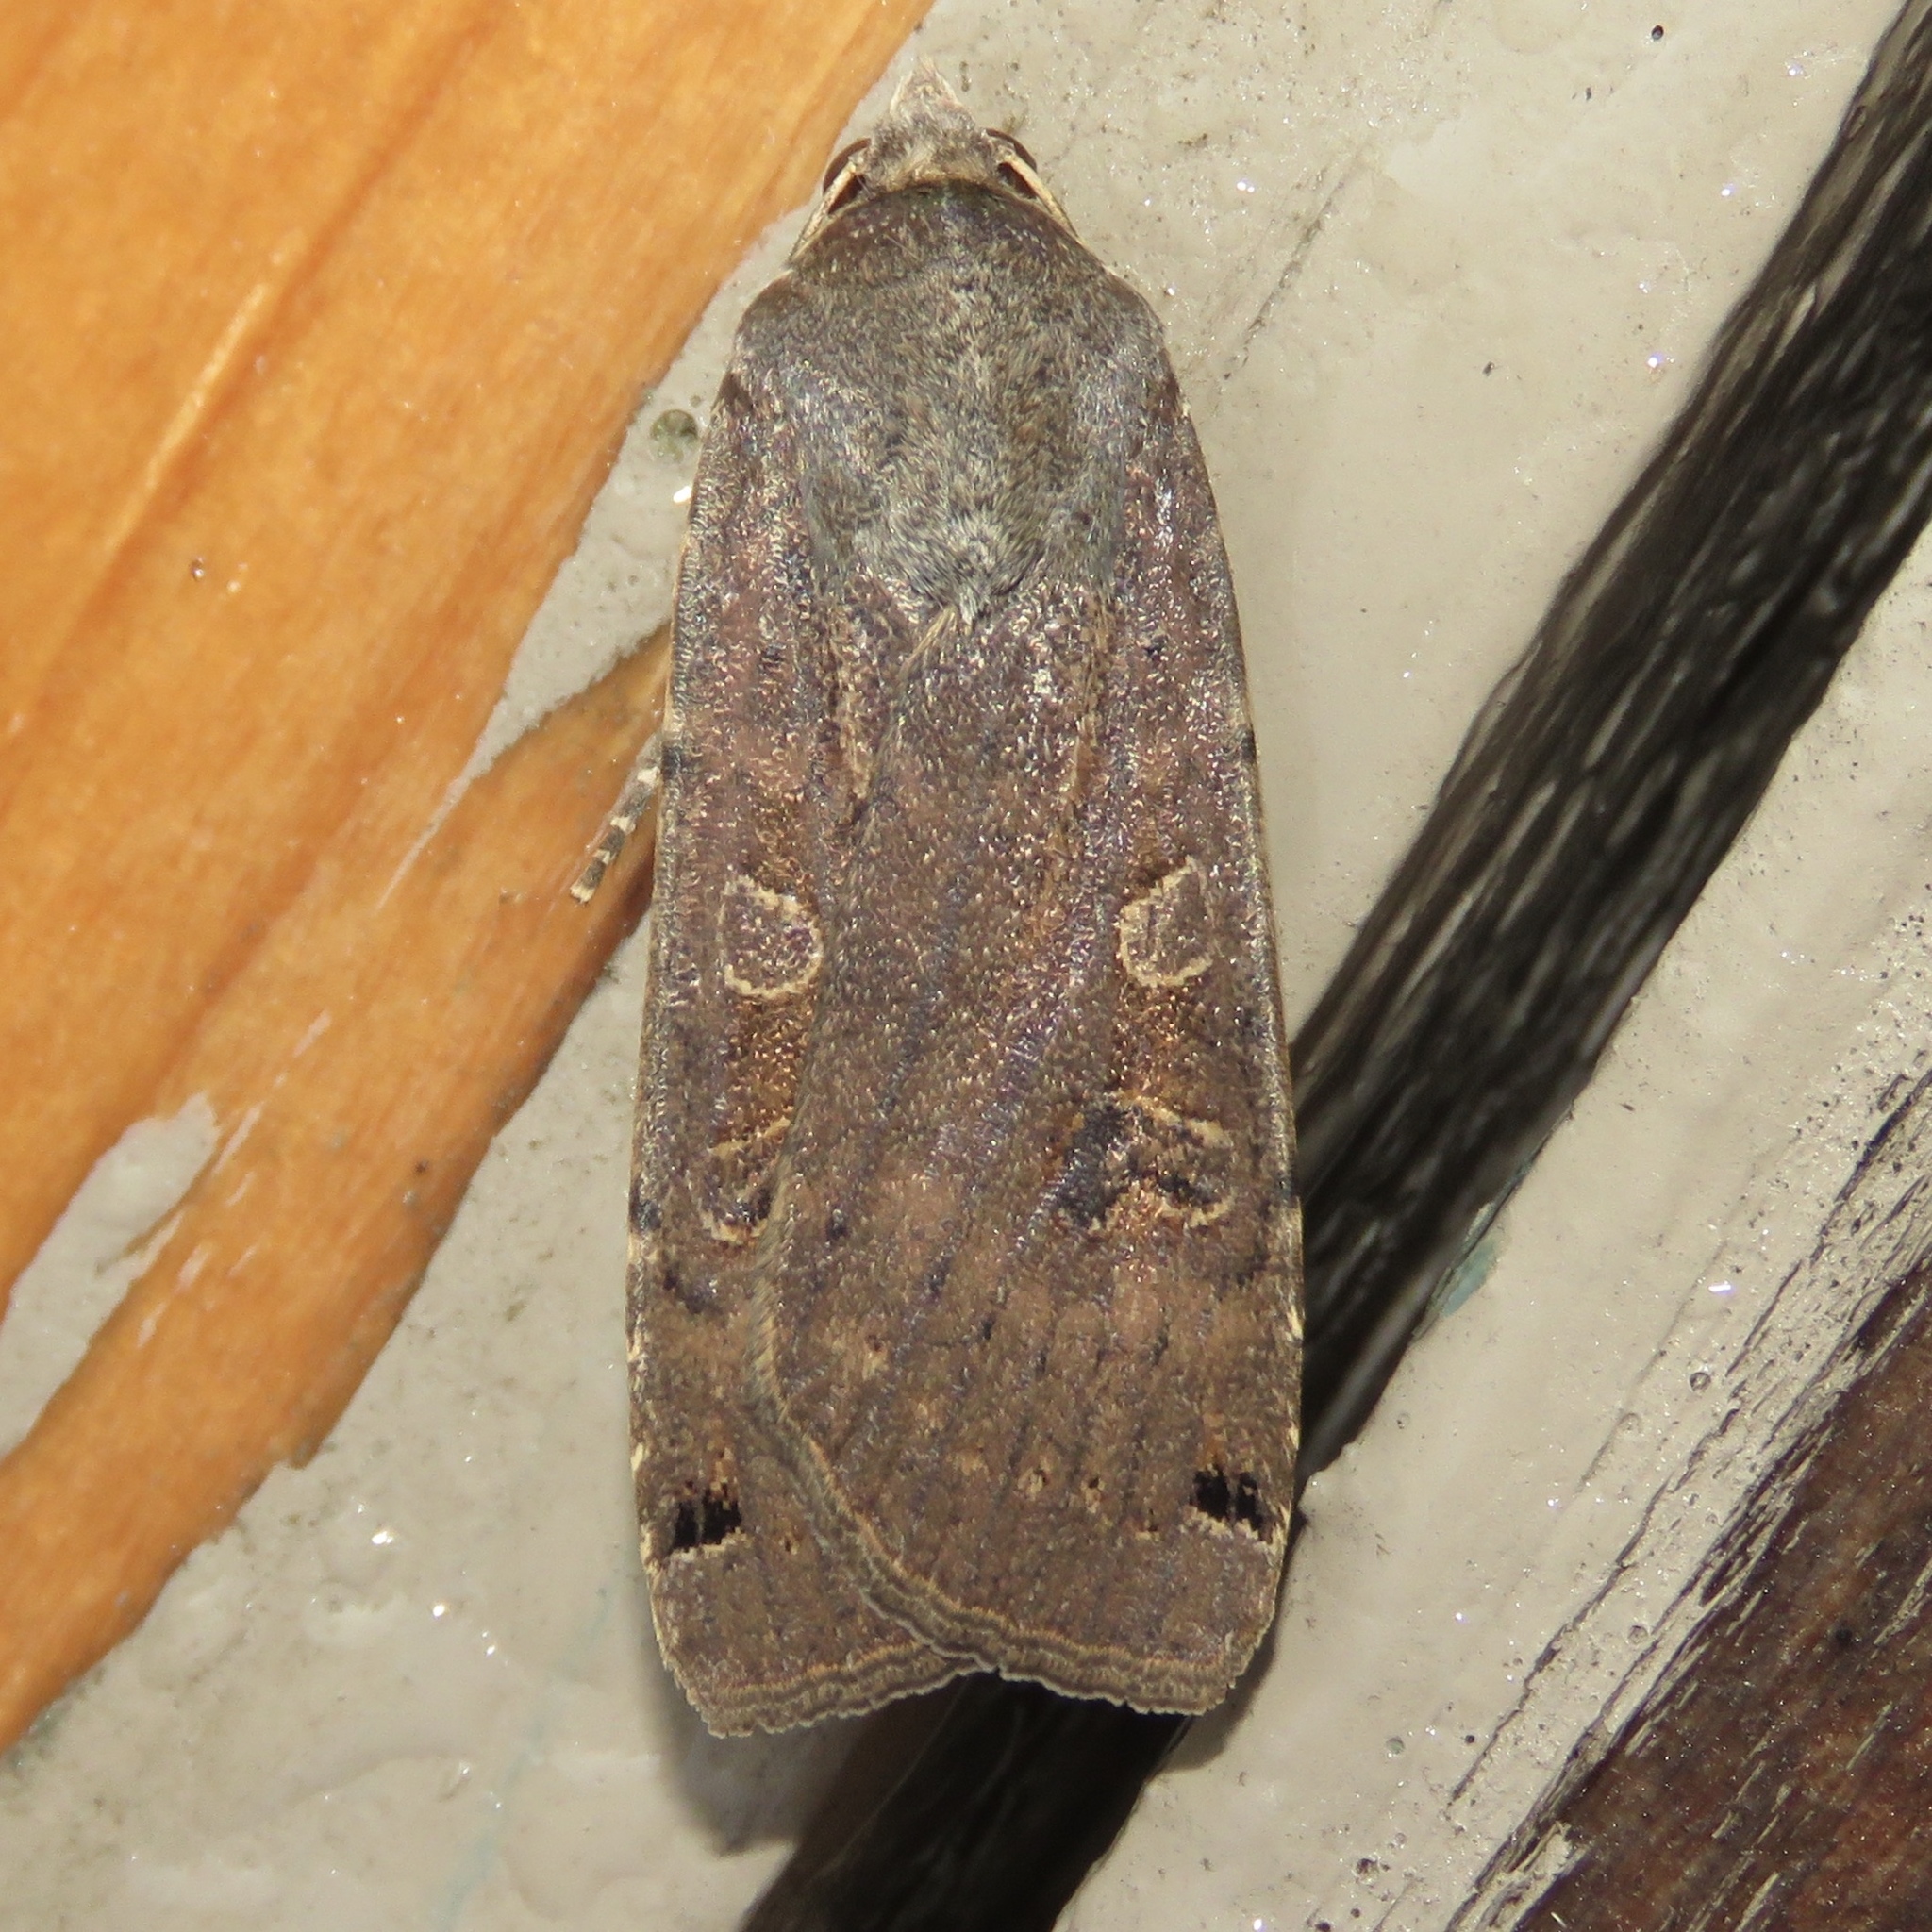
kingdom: Animalia
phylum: Arthropoda
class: Insecta
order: Lepidoptera
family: Noctuidae
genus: Noctua
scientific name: Noctua pronuba
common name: Large yellow underwing
